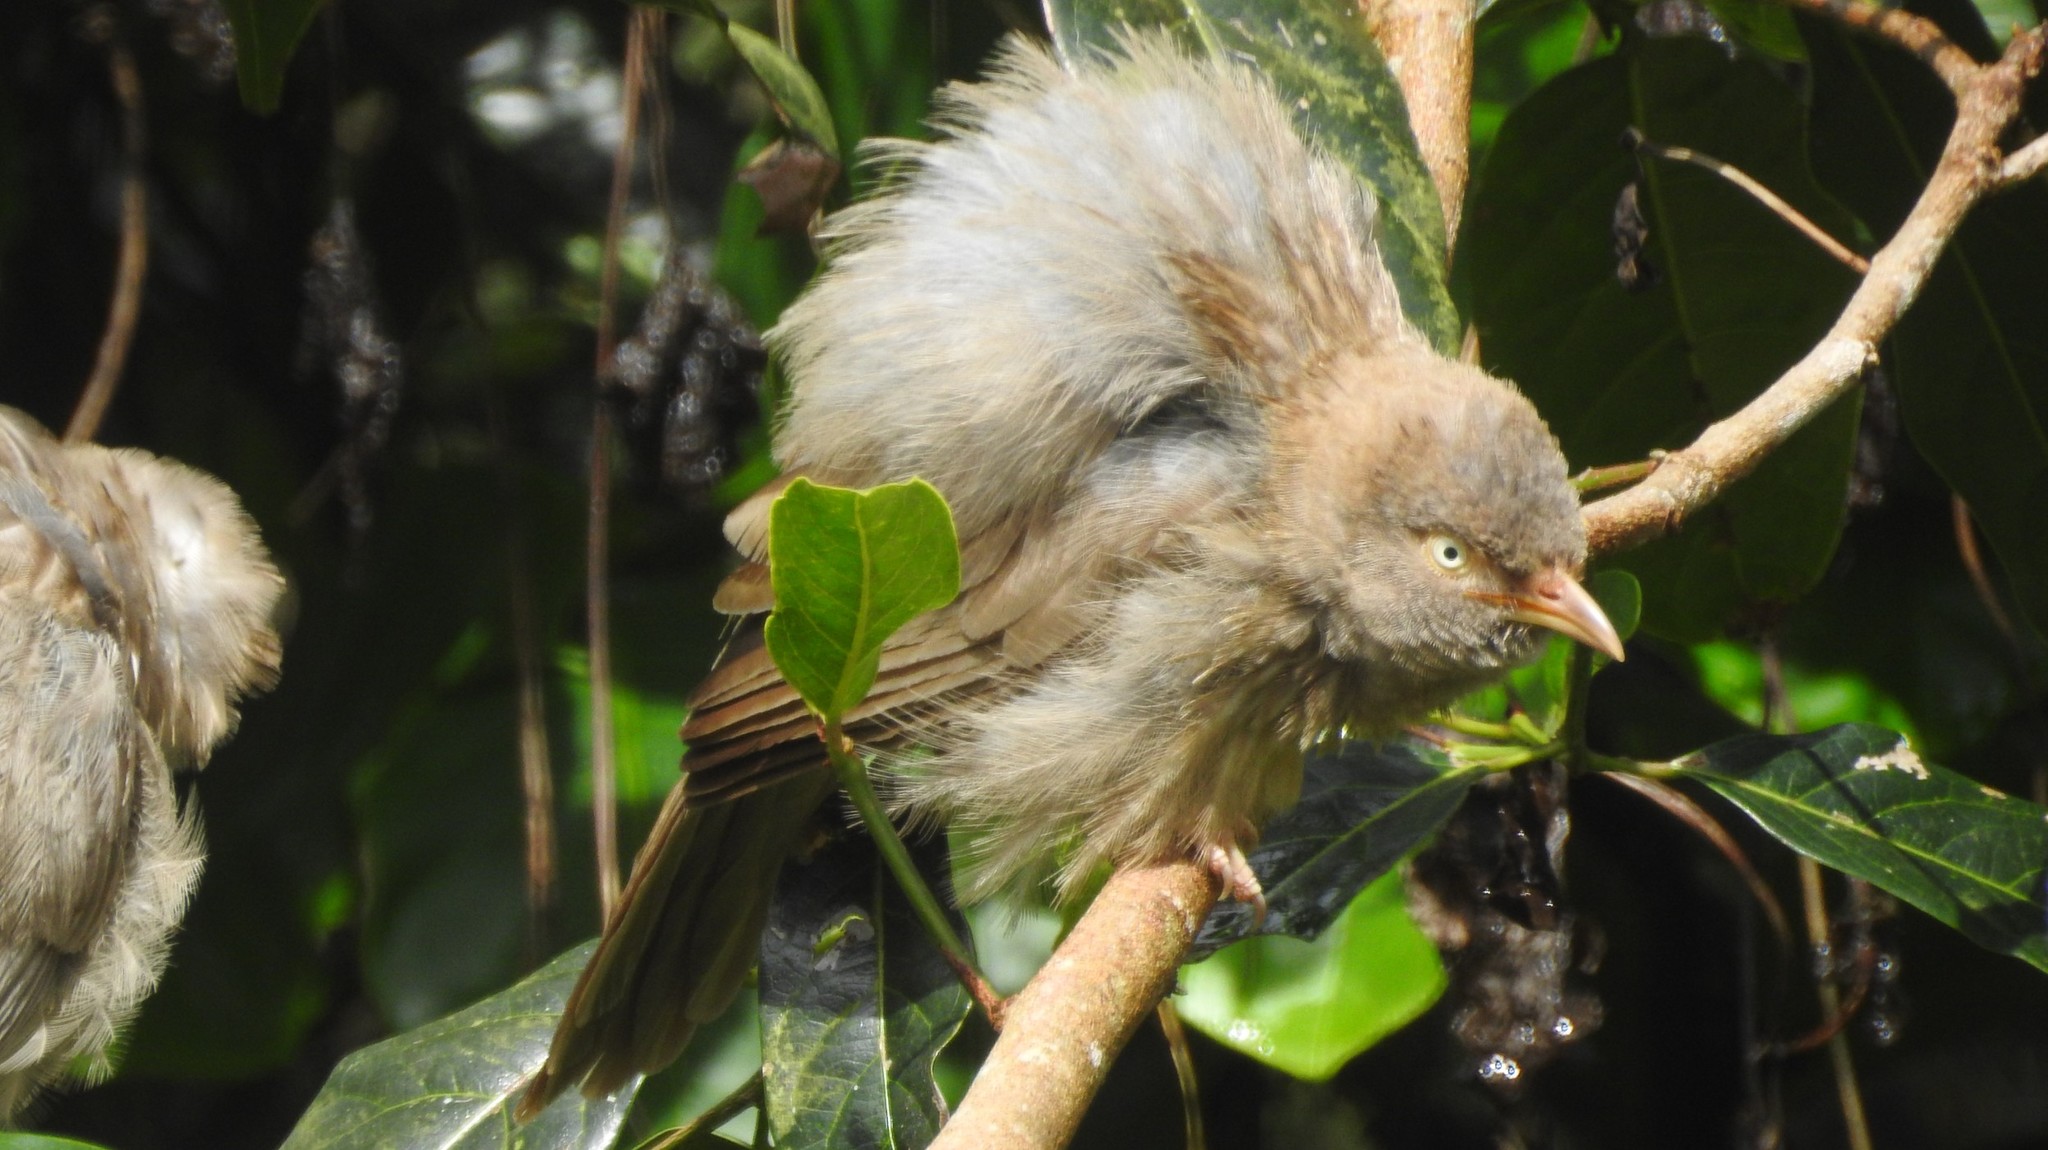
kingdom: Animalia
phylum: Chordata
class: Aves
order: Passeriformes
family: Leiothrichidae
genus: Turdoides
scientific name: Turdoides striata
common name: Jungle babbler
